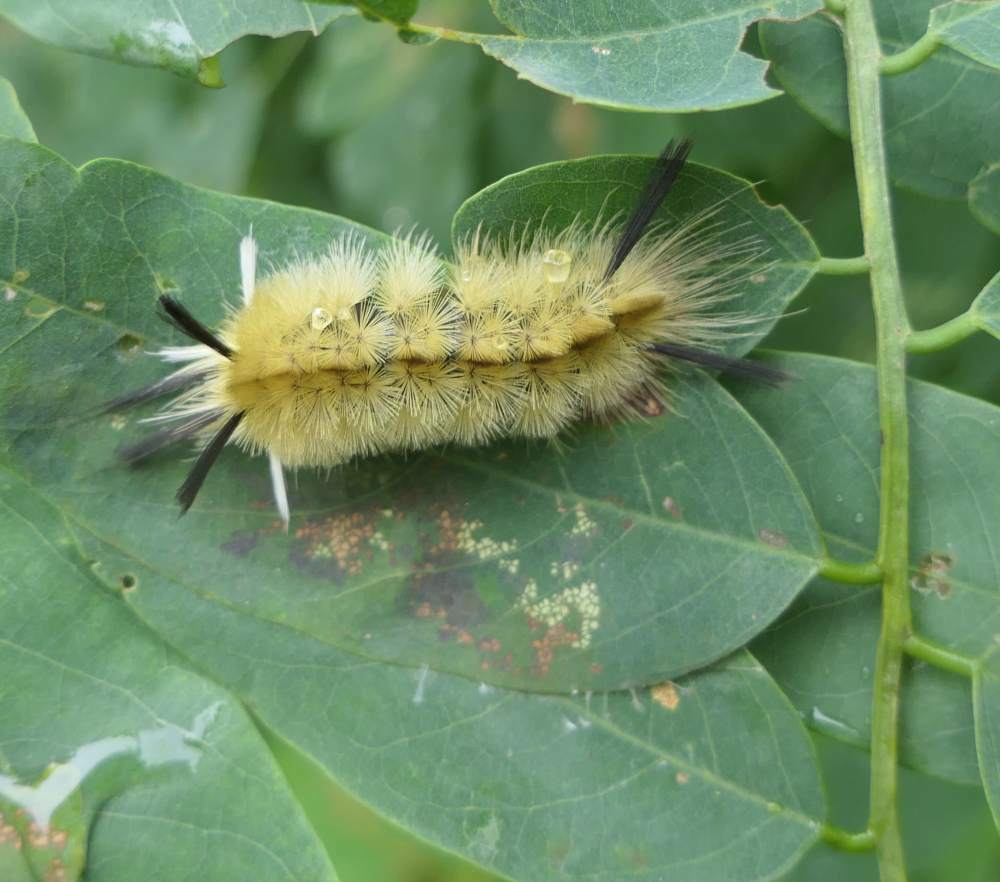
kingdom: Animalia
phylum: Arthropoda
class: Insecta
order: Lepidoptera
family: Erebidae
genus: Halysidota
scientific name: Halysidota tessellaris
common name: Banded tussock moth
